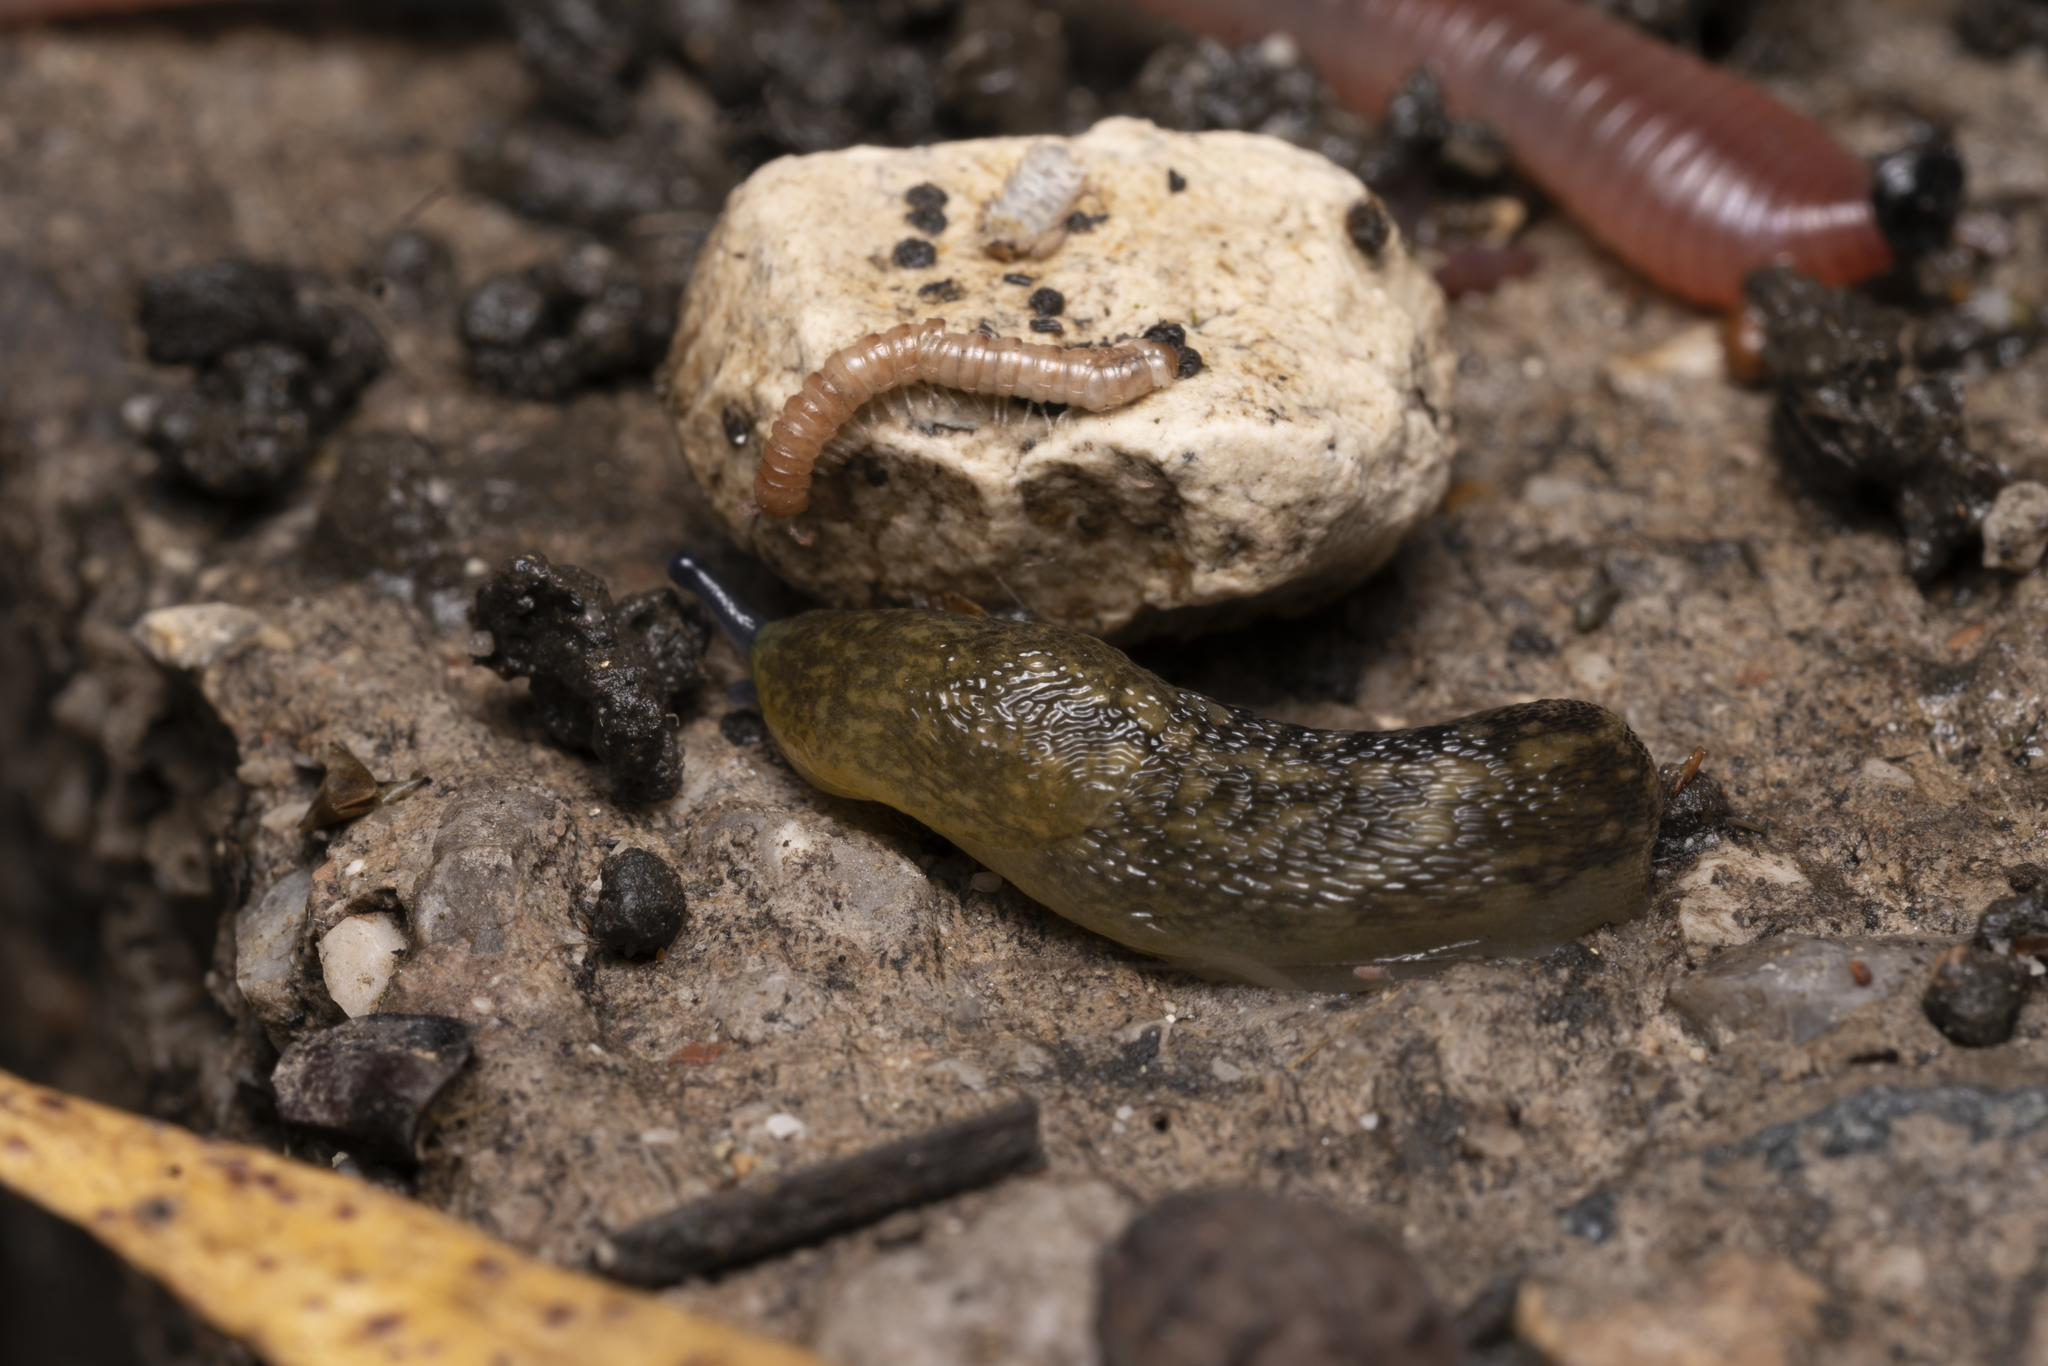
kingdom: Animalia
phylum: Mollusca
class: Gastropoda
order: Stylommatophora
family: Limacidae
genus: Limacus
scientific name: Limacus flavus
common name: Yellow gardenslug
